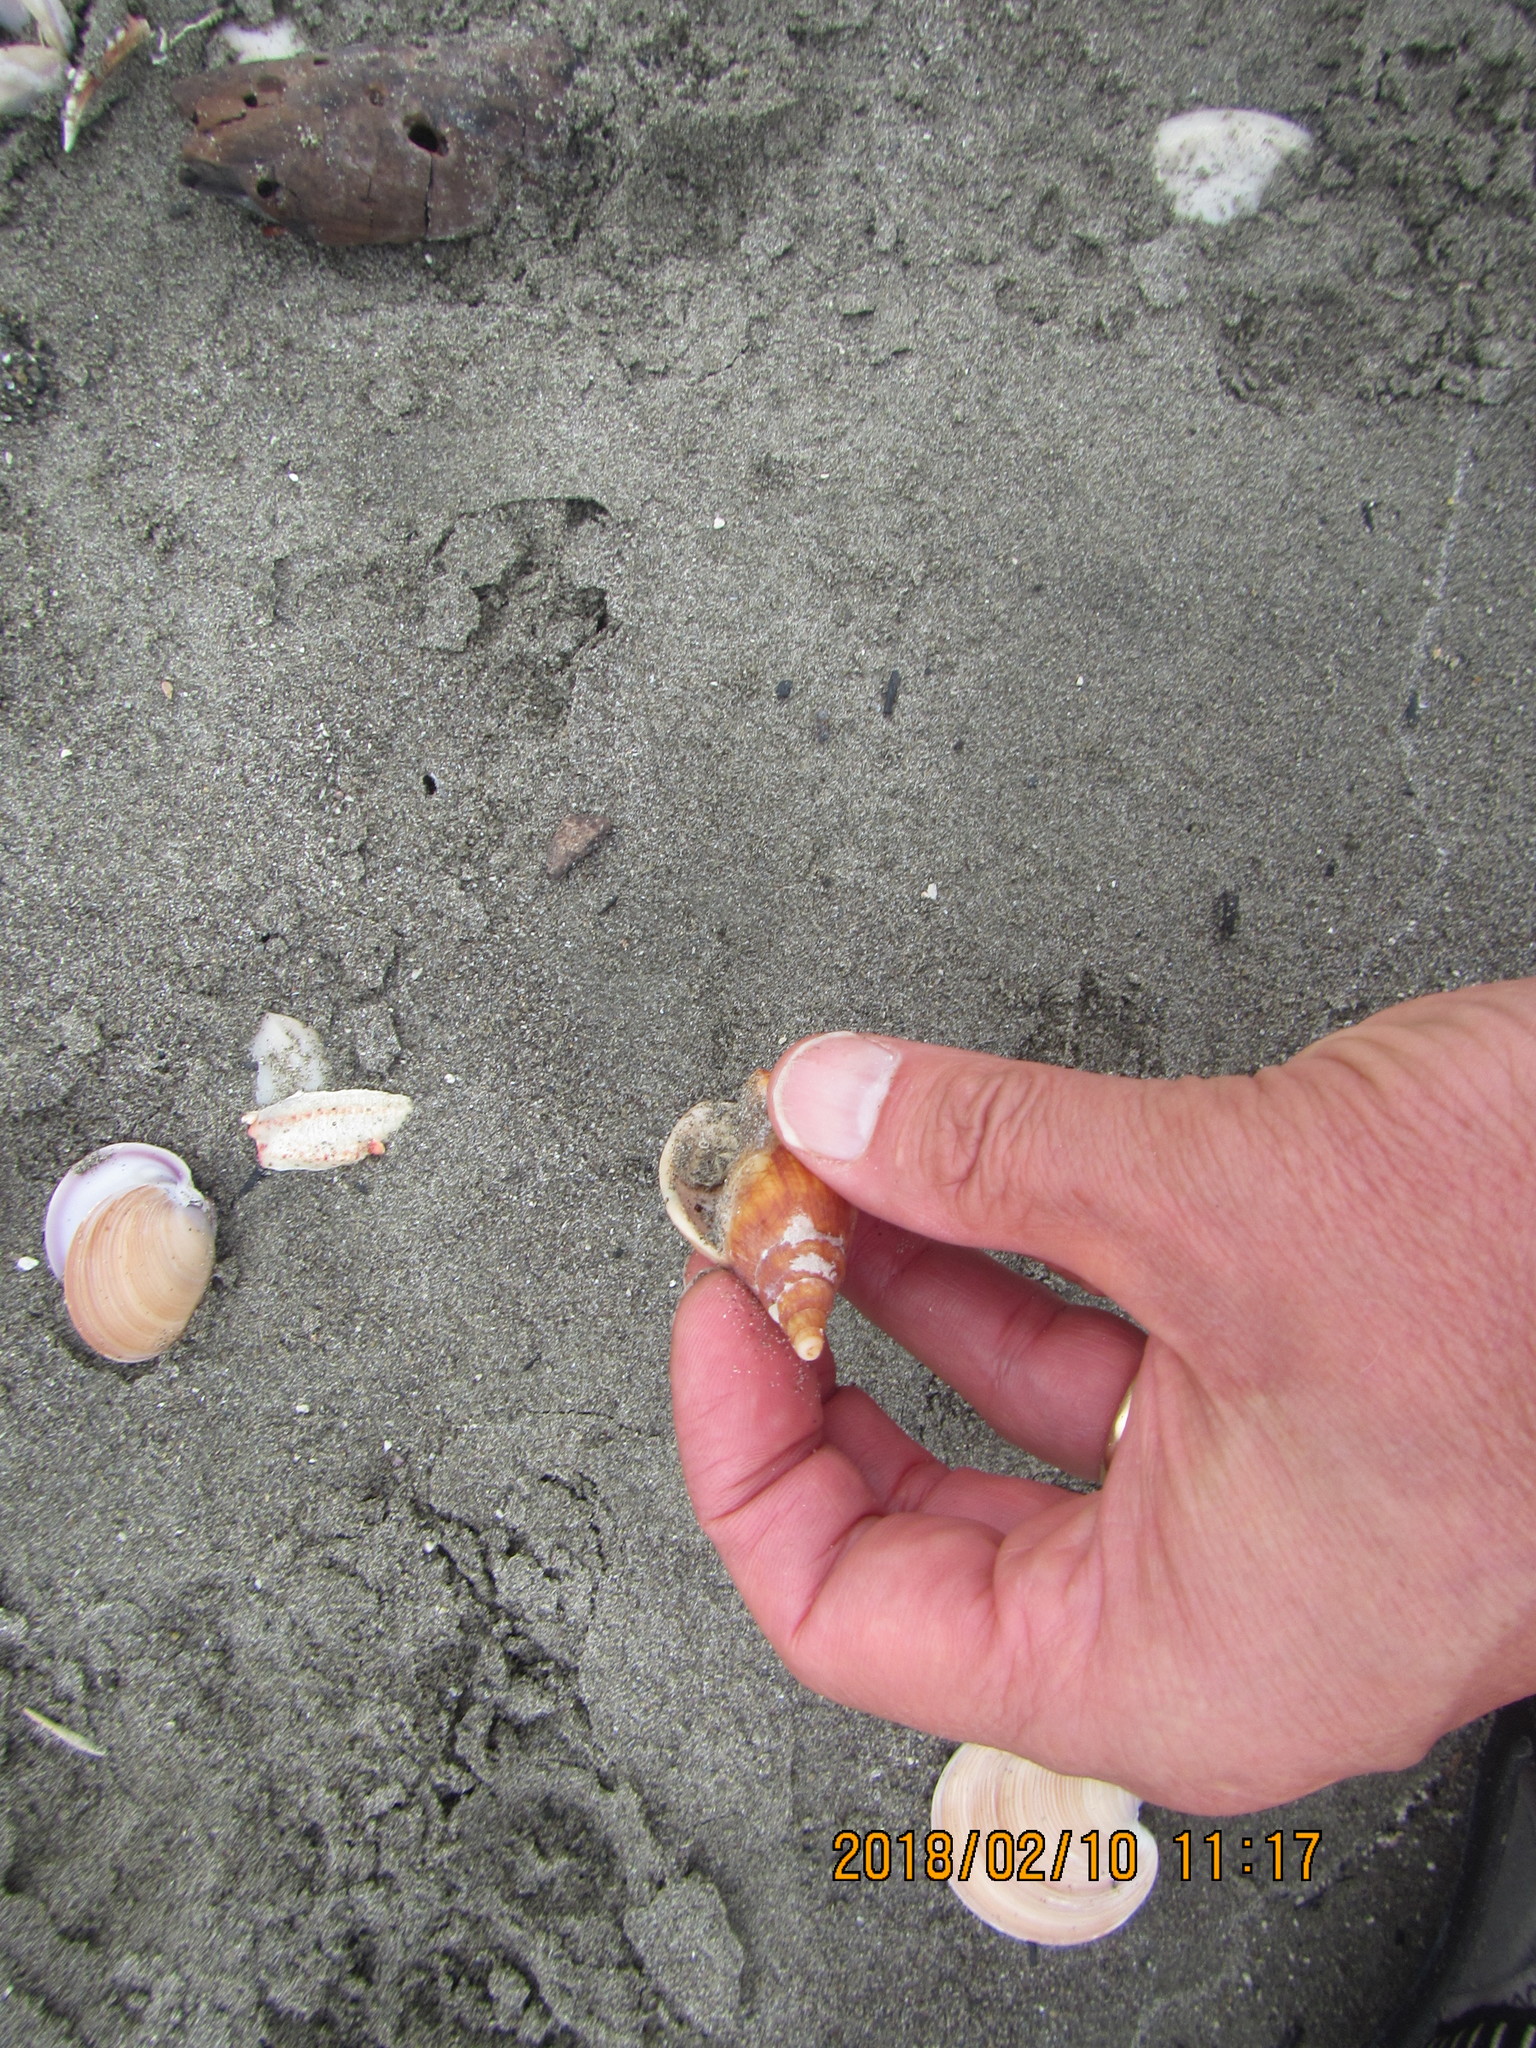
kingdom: Animalia
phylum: Mollusca
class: Gastropoda
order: Neogastropoda
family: Volutidae
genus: Alcithoe
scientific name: Alcithoe fusus
